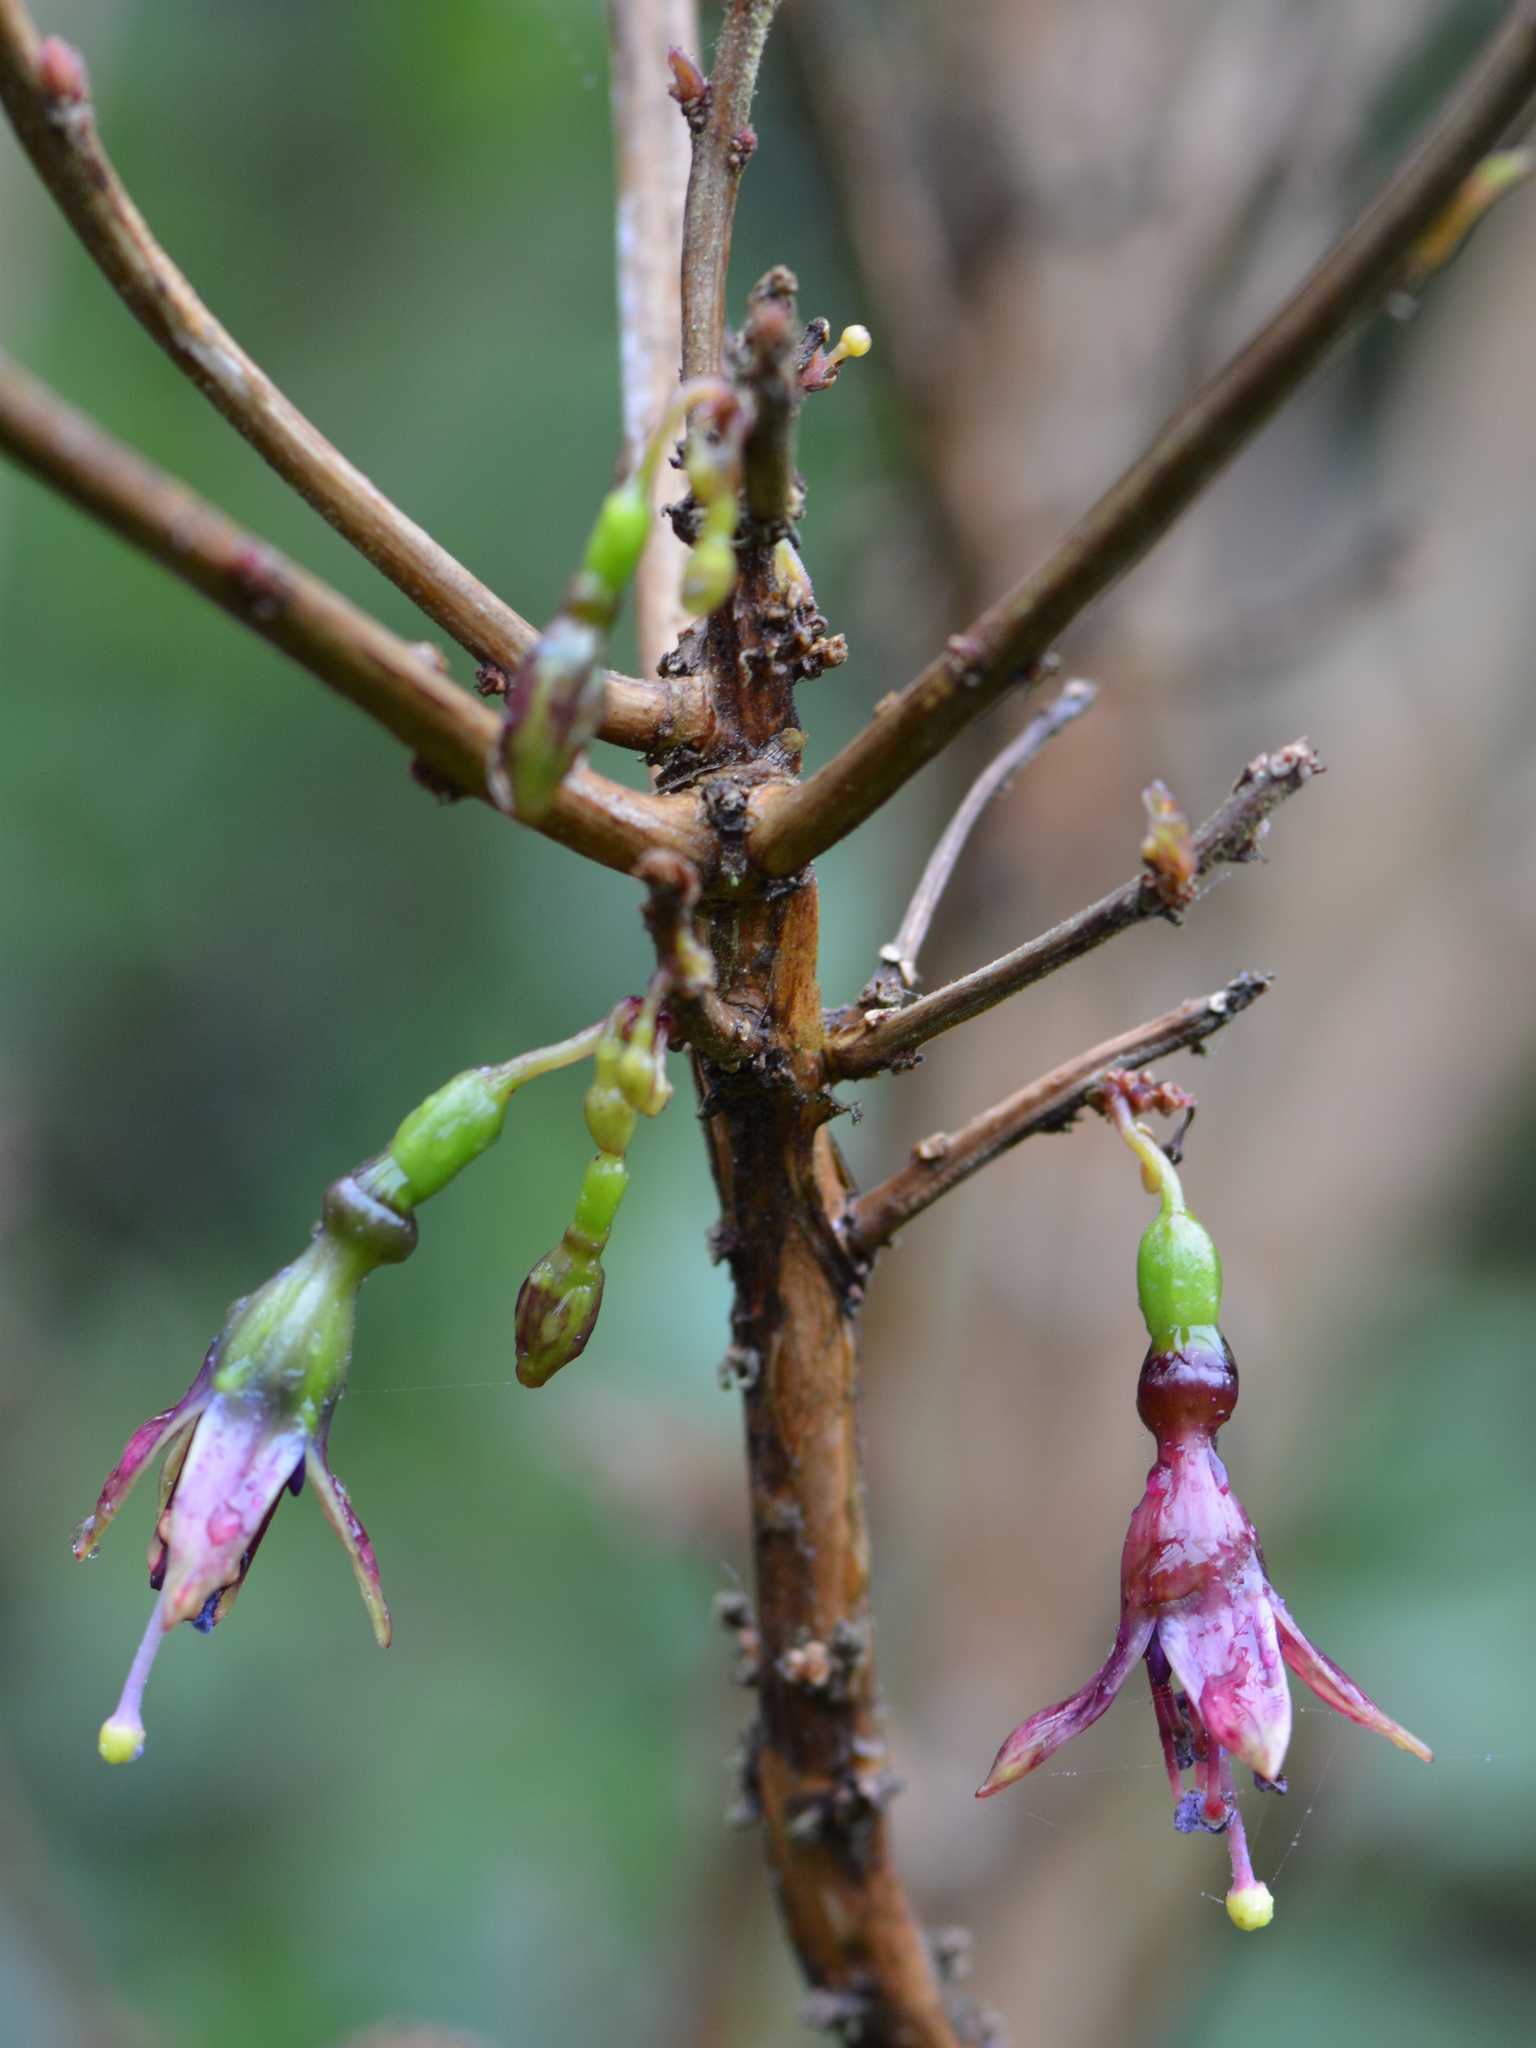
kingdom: Plantae
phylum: Tracheophyta
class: Magnoliopsida
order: Myrtales
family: Onagraceae
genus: Fuchsia
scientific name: Fuchsia excorticata
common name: Tree fuchsia
